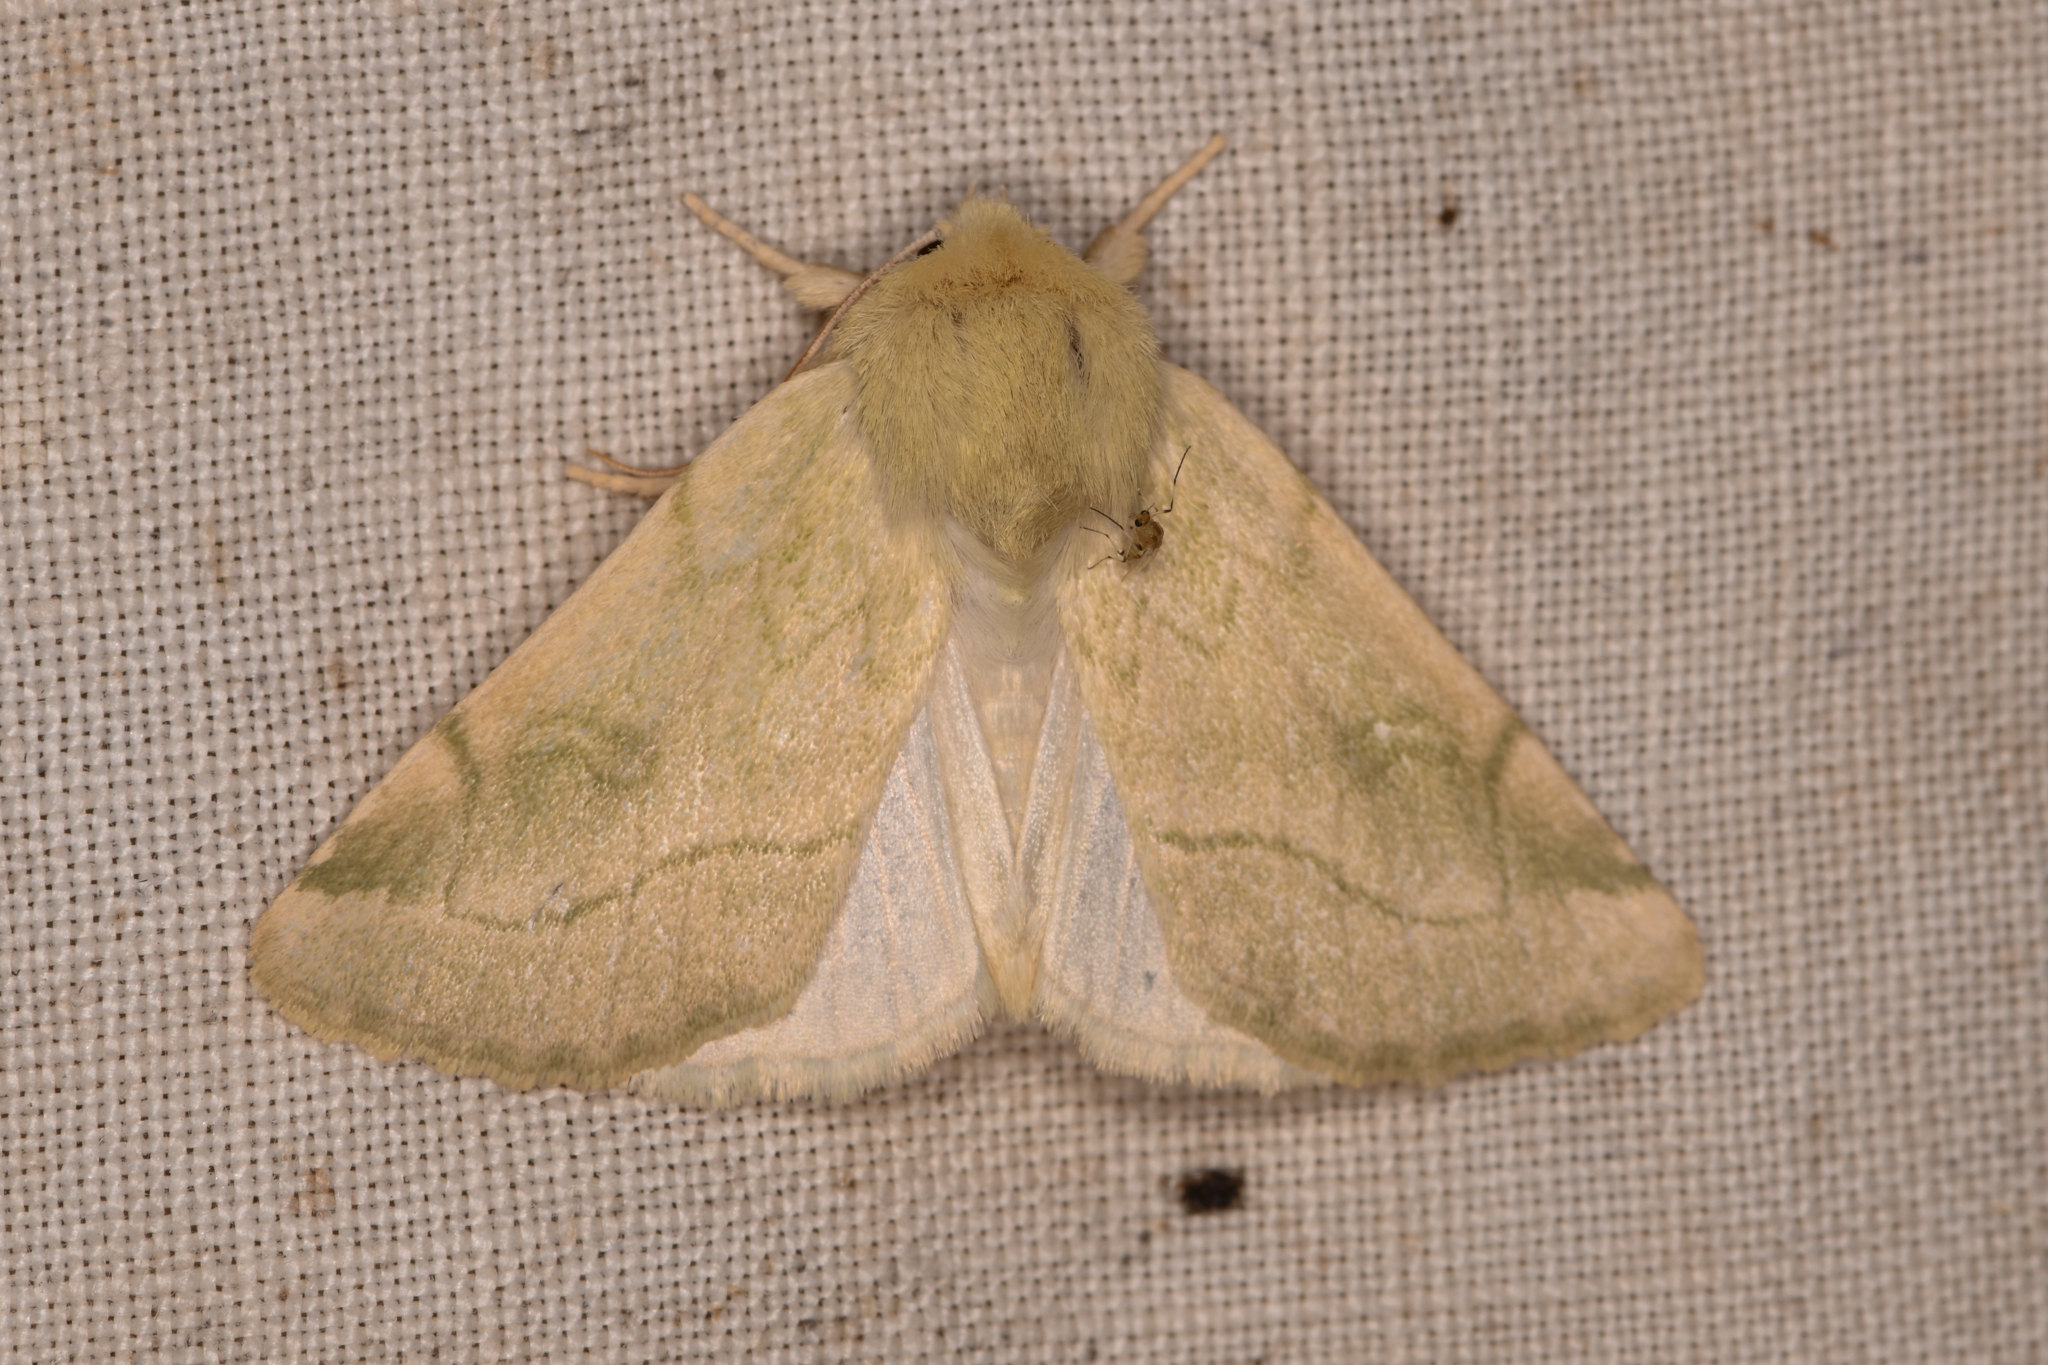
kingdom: Animalia
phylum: Arthropoda
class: Insecta
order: Lepidoptera
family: Noctuidae
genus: Zotheca
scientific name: Zotheca tranquilla
